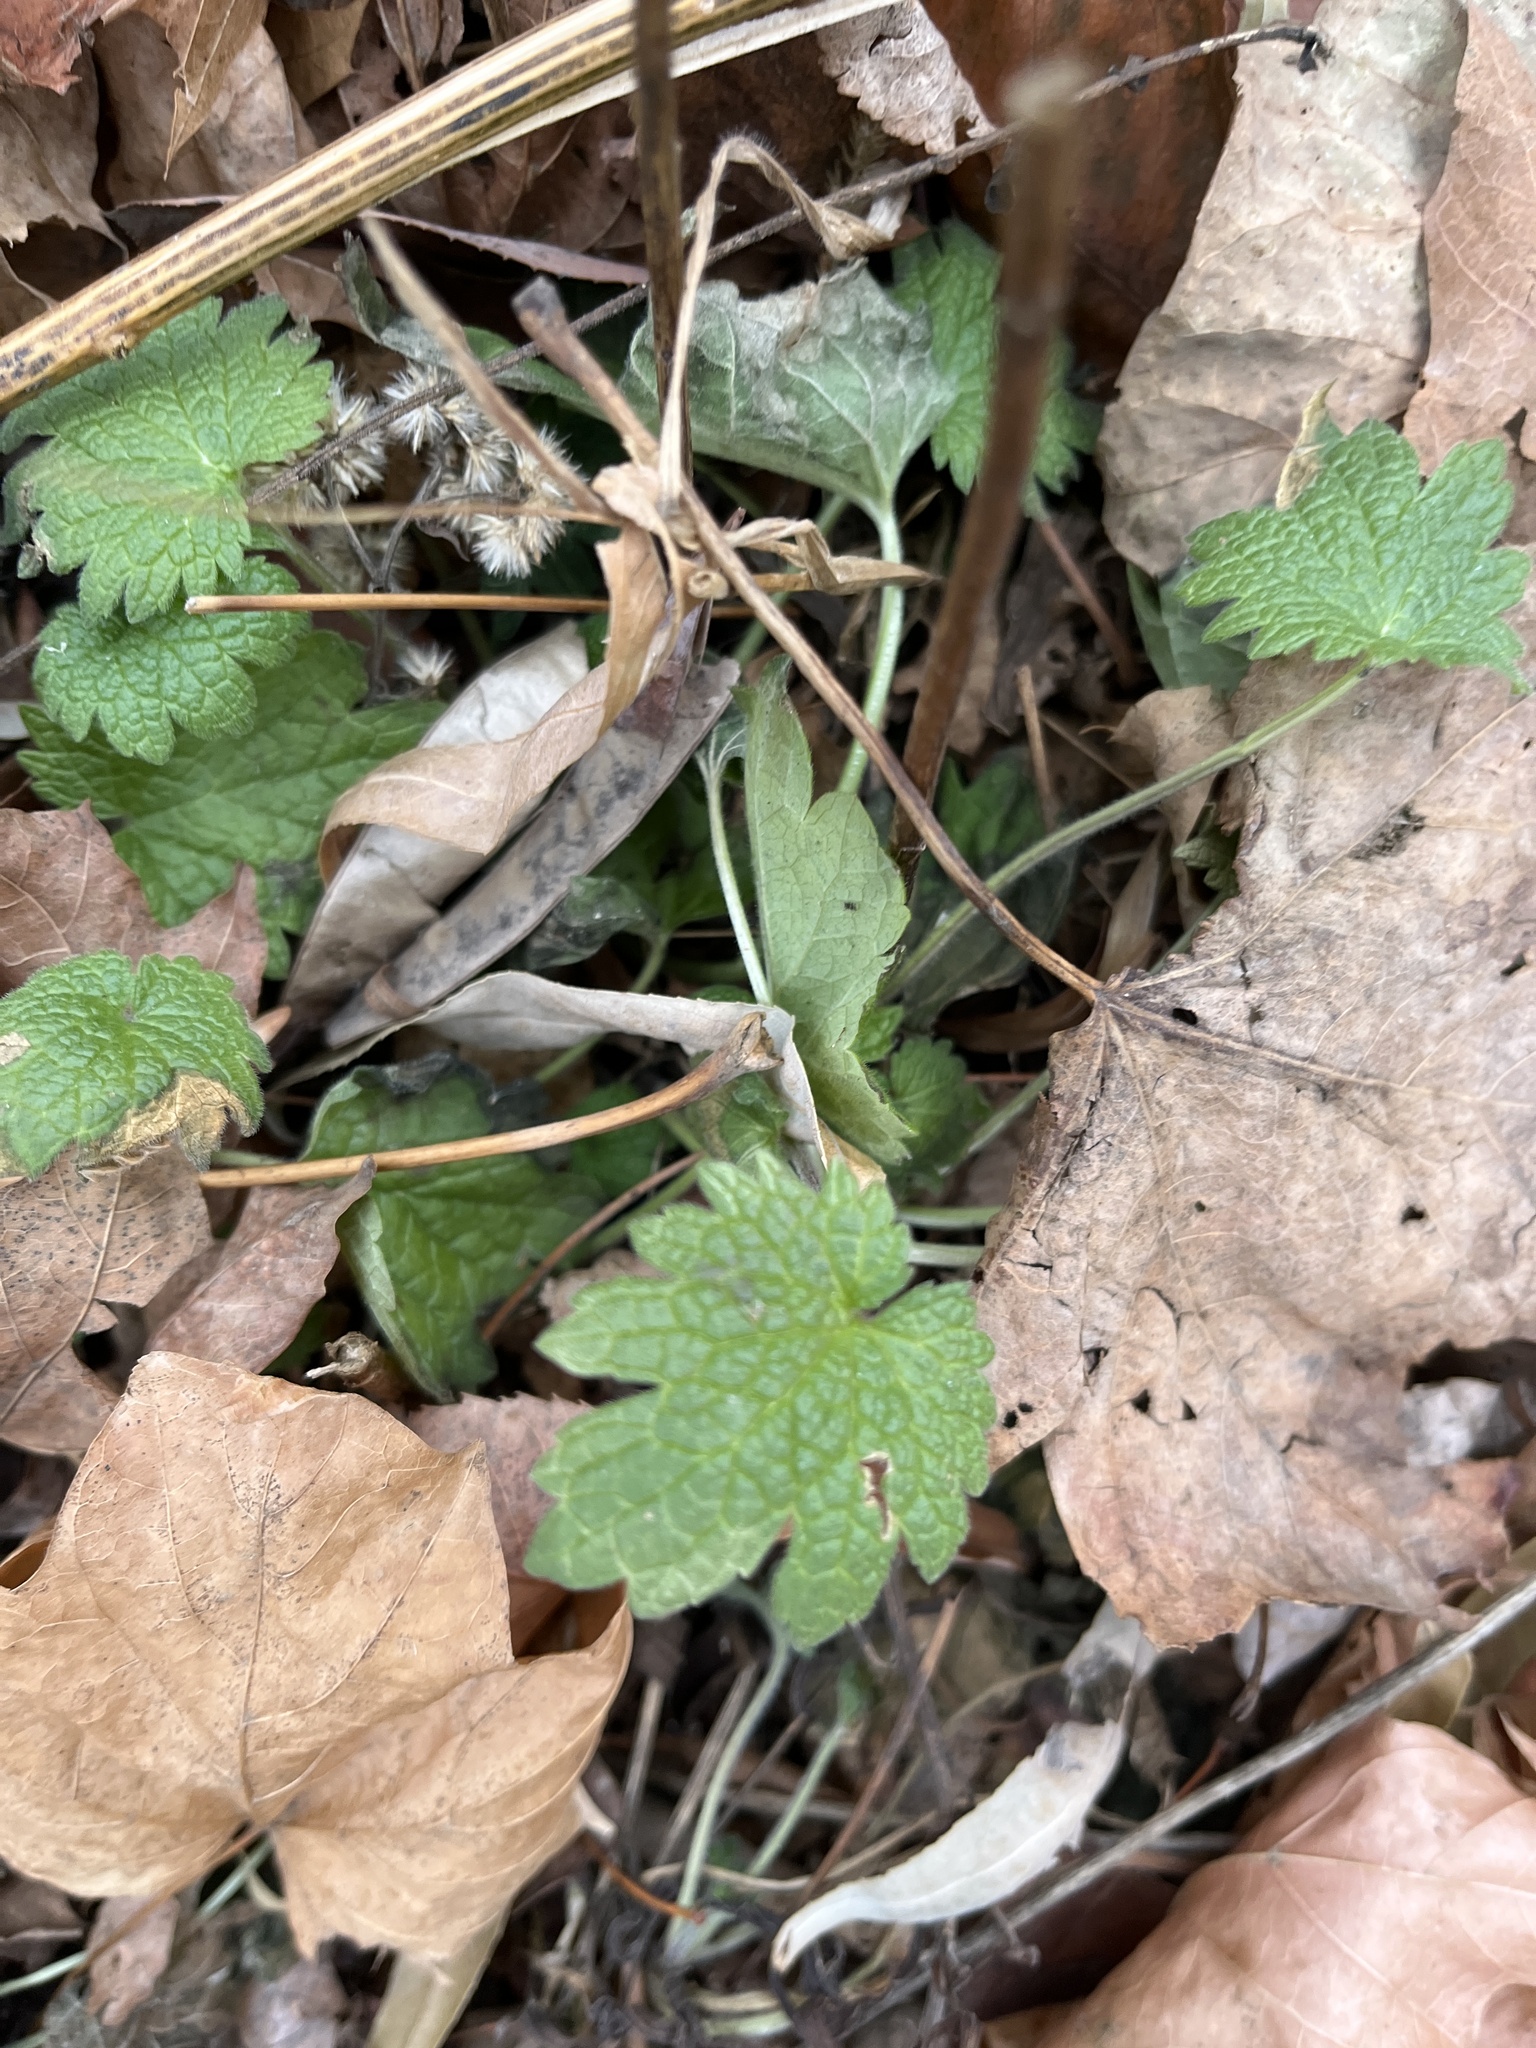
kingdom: Plantae
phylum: Tracheophyta
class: Magnoliopsida
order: Lamiales
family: Lamiaceae
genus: Leonurus
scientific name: Leonurus cardiaca
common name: Motherwort
